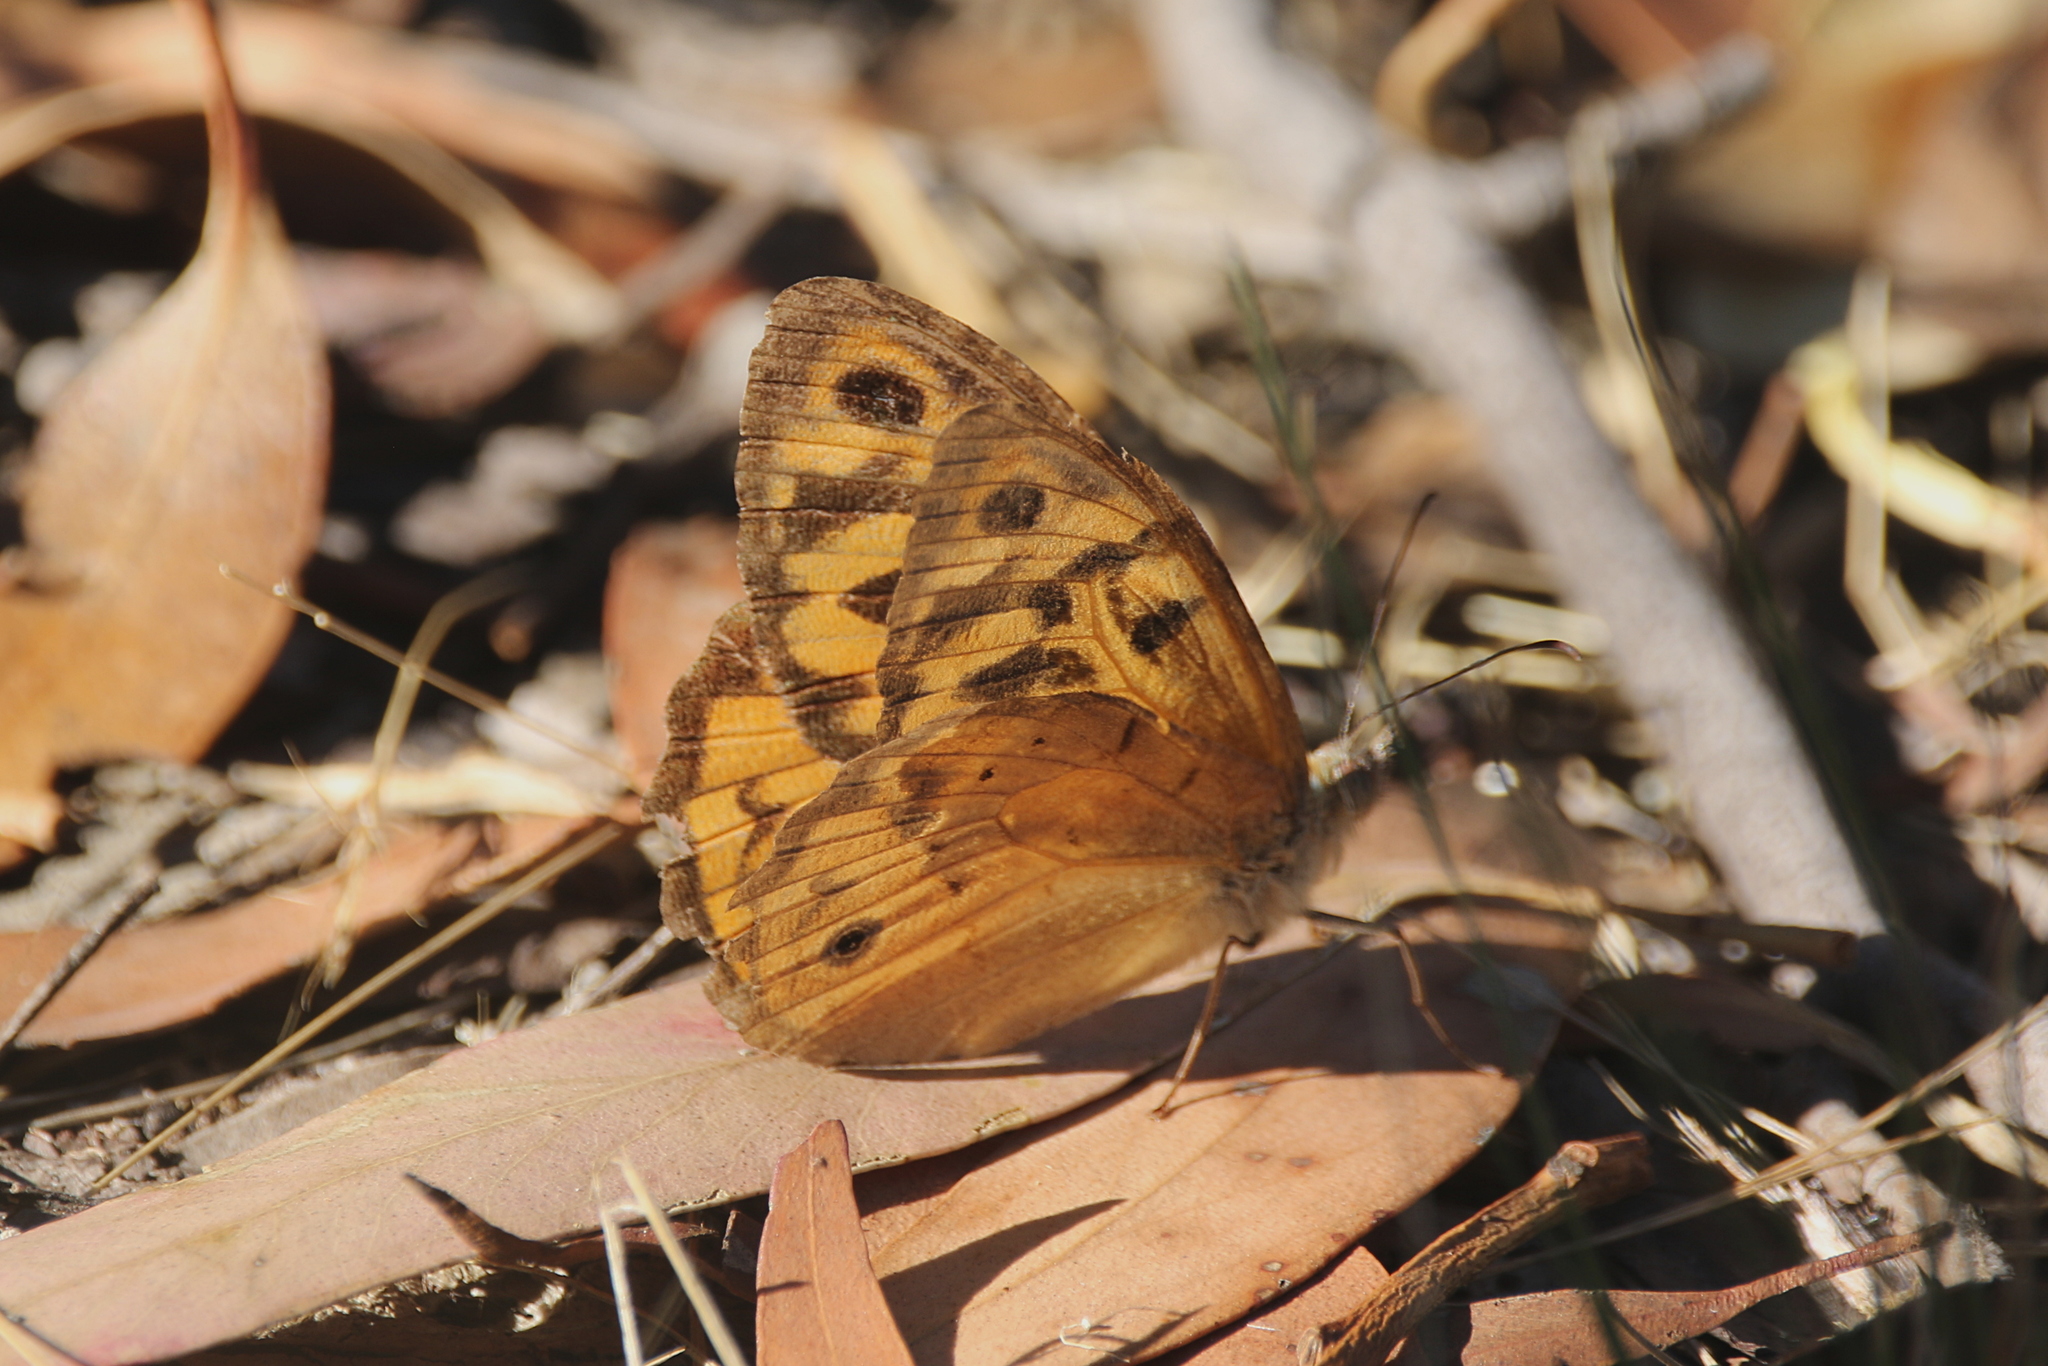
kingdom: Animalia
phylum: Arthropoda
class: Insecta
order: Lepidoptera
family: Nymphalidae
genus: Heteronympha
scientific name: Heteronympha merope
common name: Common brown
